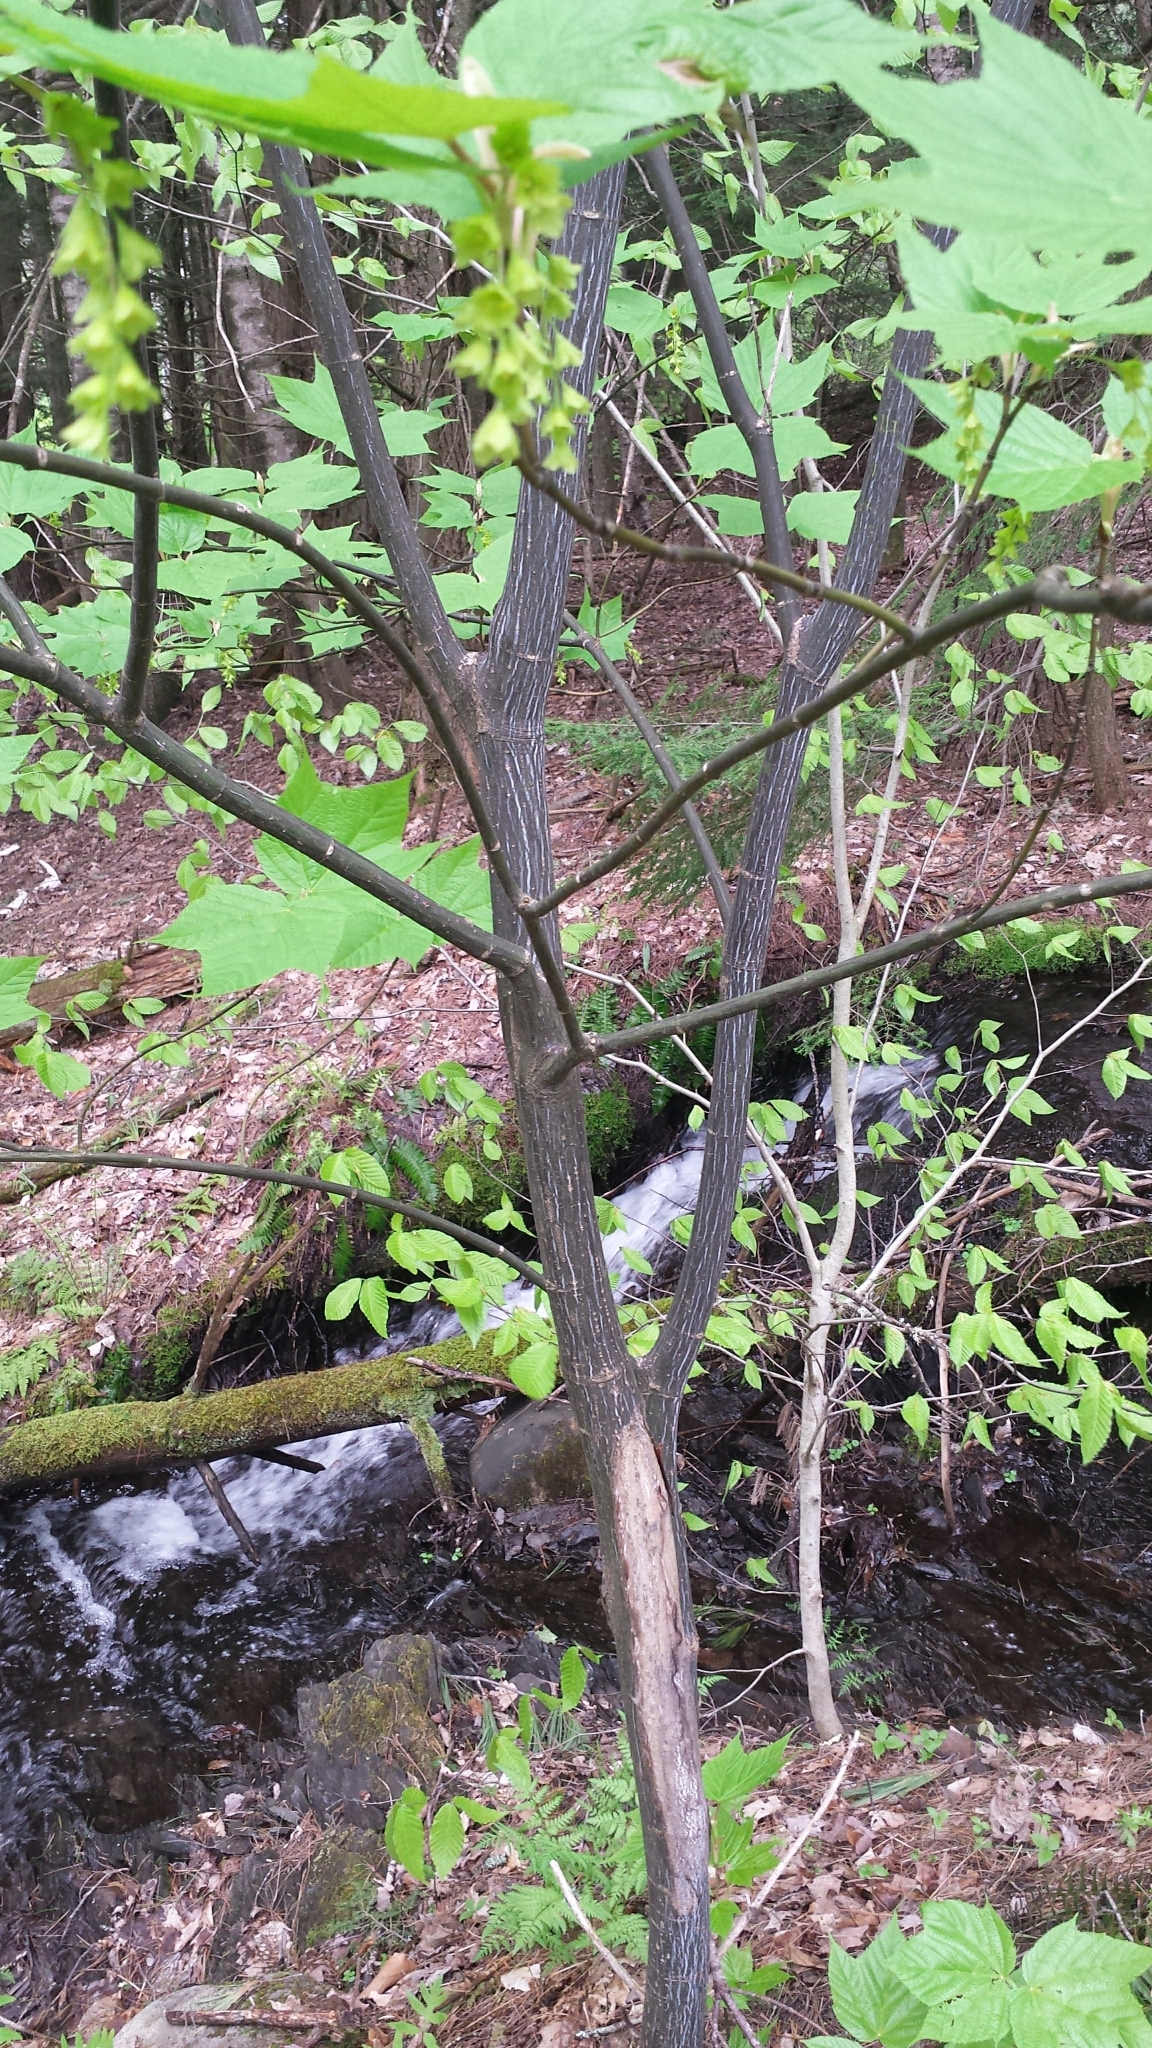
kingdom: Plantae
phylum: Tracheophyta
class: Magnoliopsida
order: Sapindales
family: Sapindaceae
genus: Acer
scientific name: Acer pensylvanicum
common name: Moosewood
